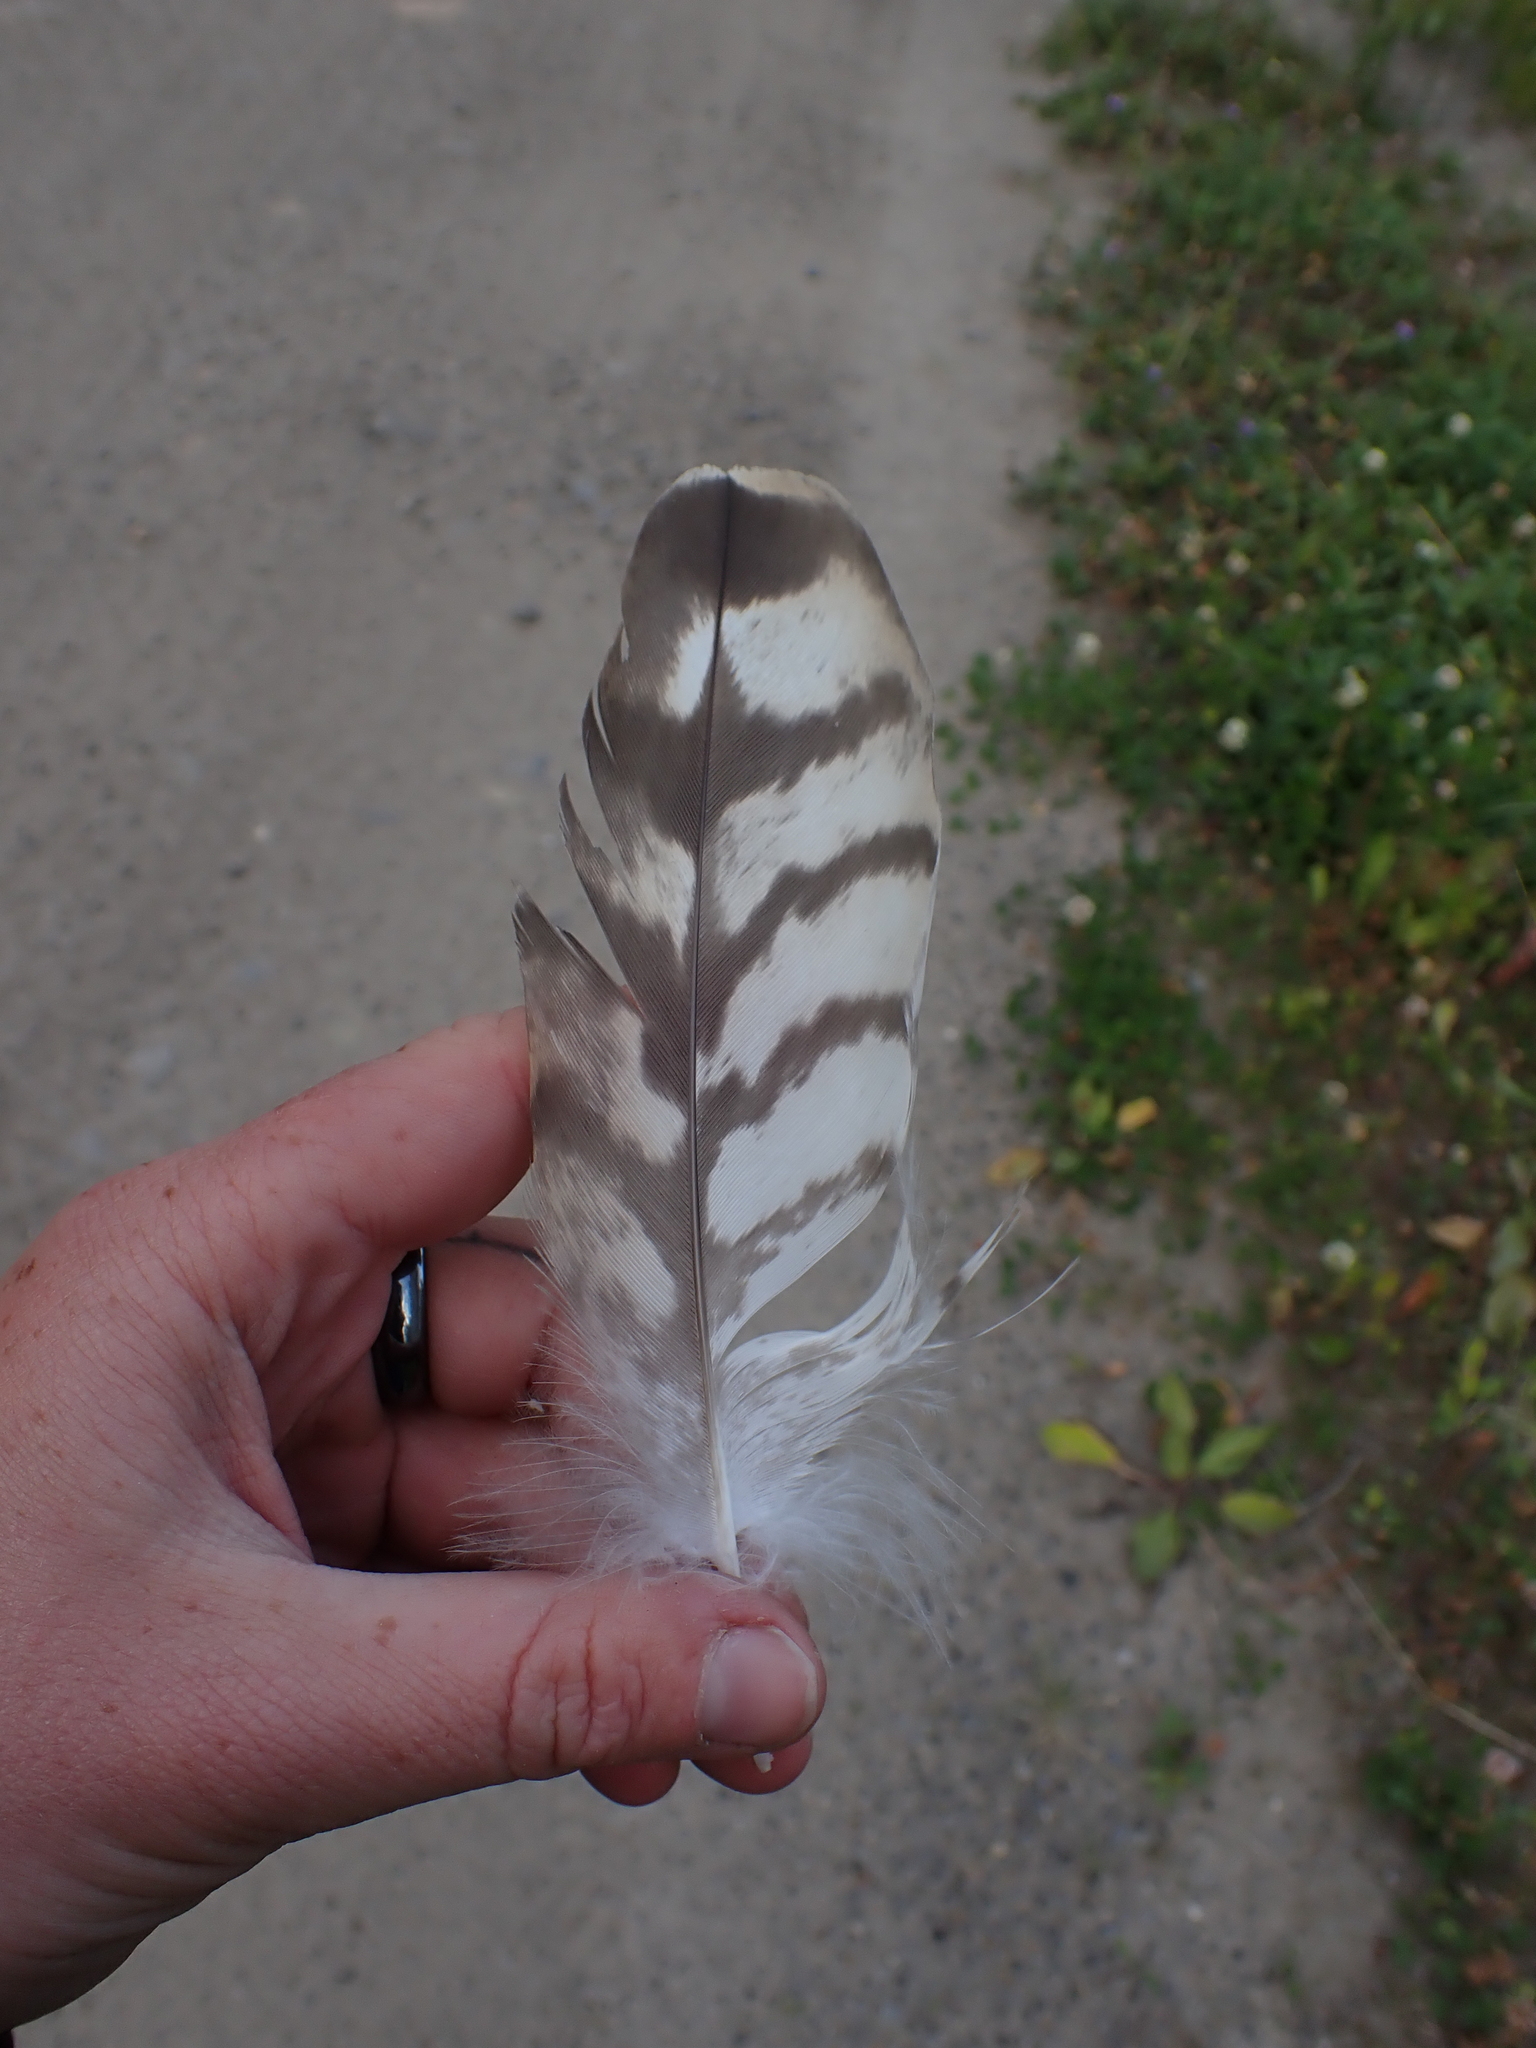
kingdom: Animalia
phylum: Chordata
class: Aves
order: Accipitriformes
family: Accipitridae
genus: Accipiter
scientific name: Accipiter gentilis
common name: Northern goshawk
